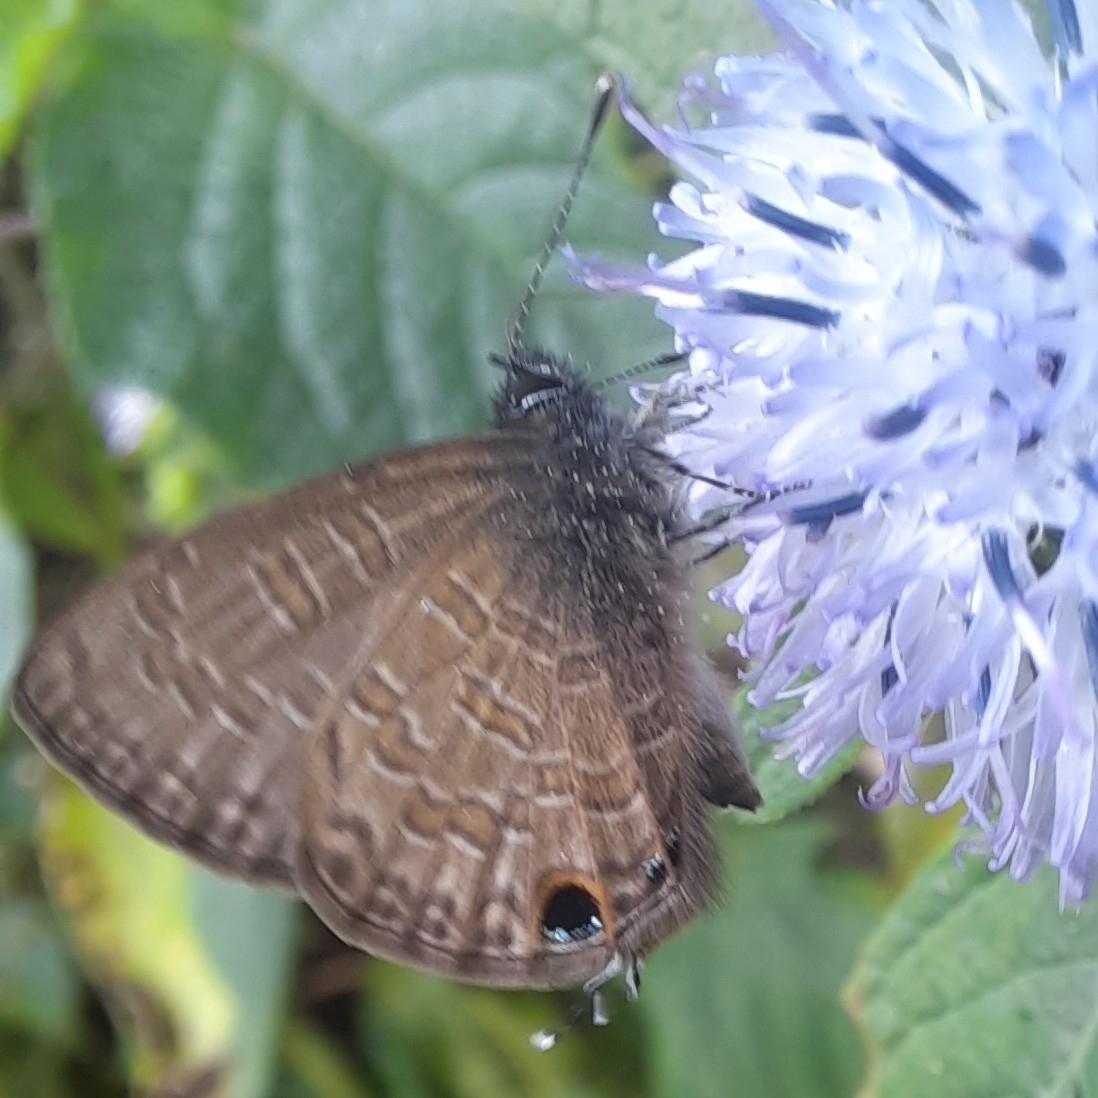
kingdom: Animalia
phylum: Arthropoda
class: Insecta
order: Lepidoptera
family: Lycaenidae
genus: Prosotas
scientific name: Prosotas nora
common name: Common line blue
